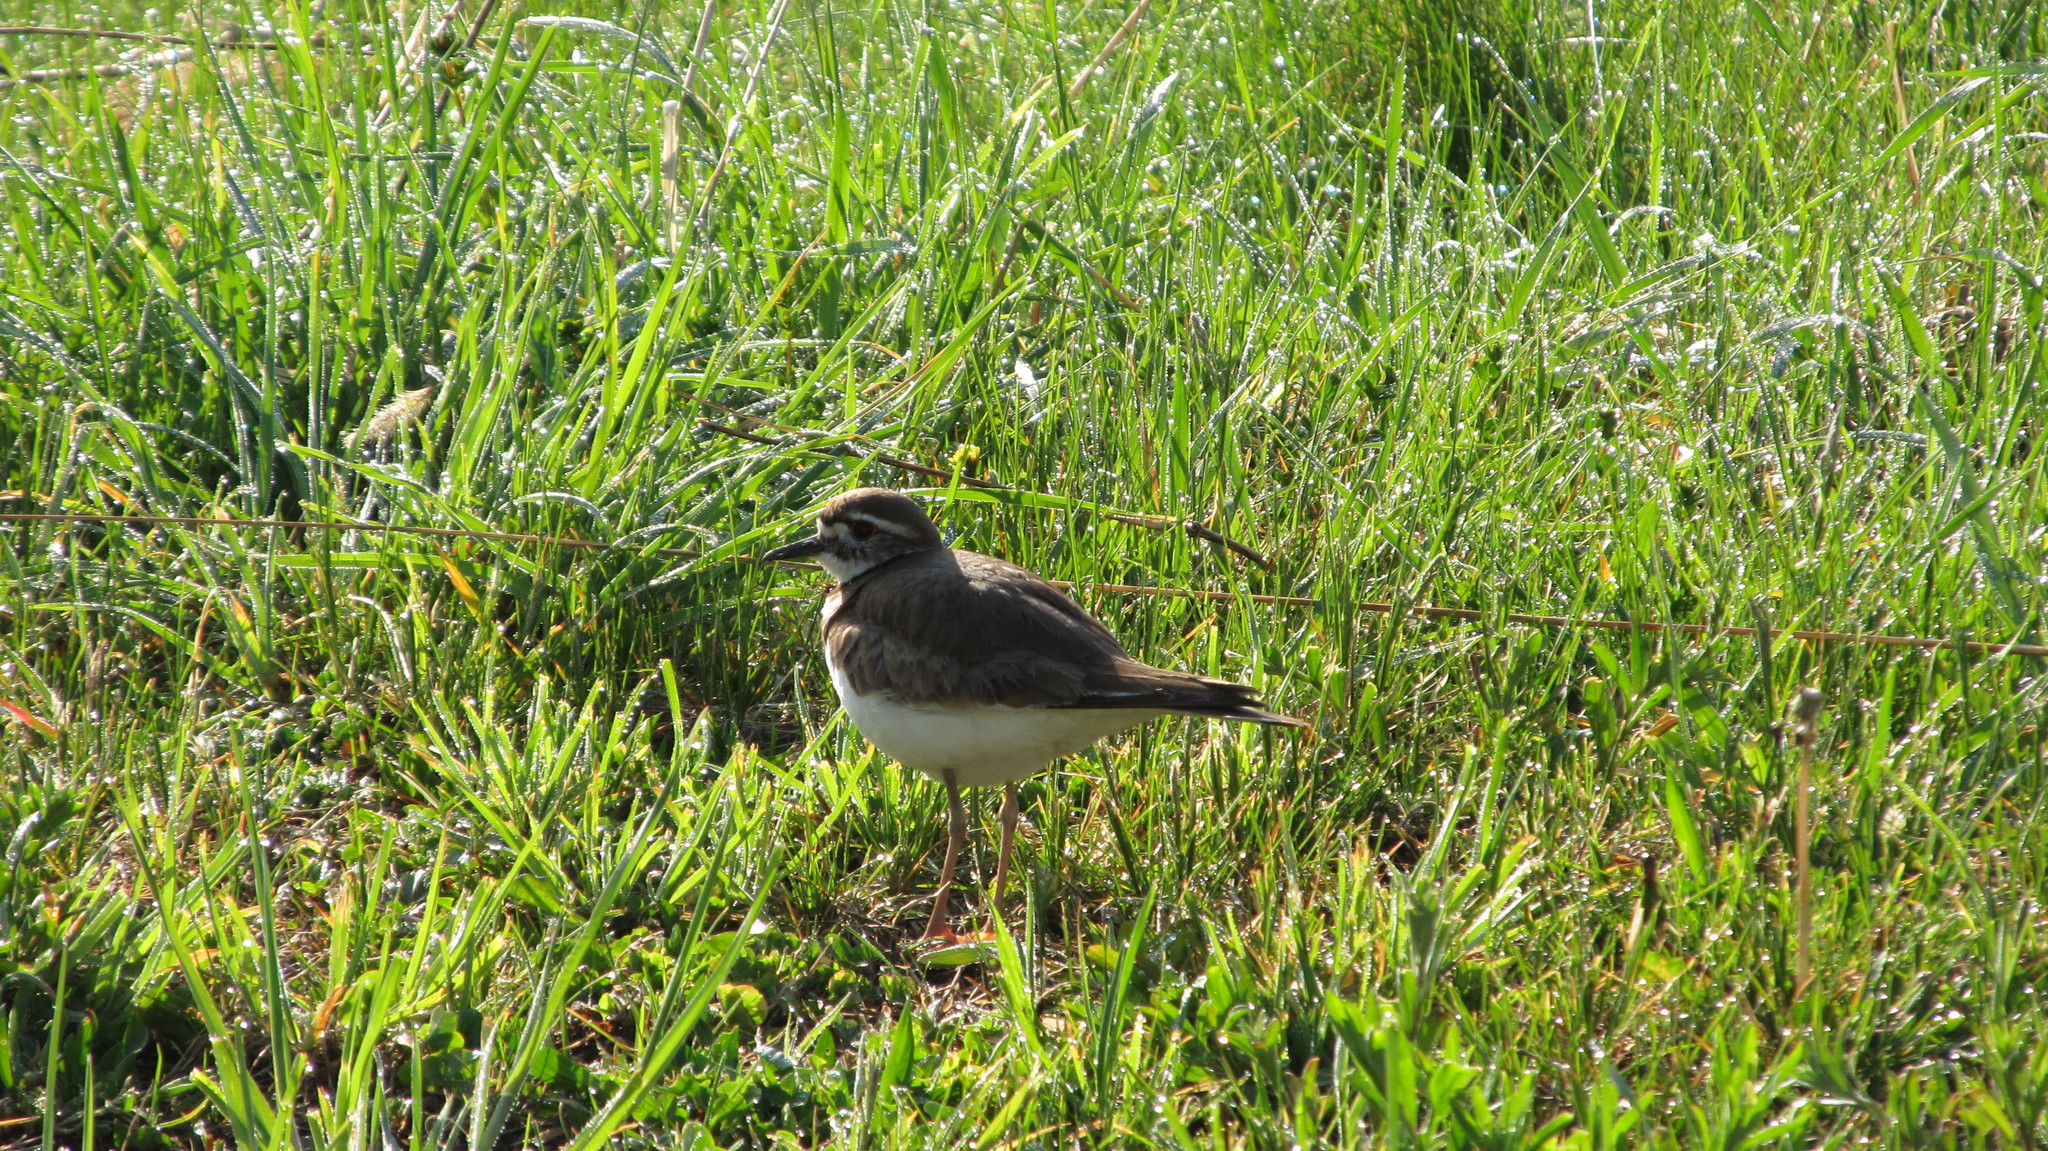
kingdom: Animalia
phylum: Chordata
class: Aves
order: Charadriiformes
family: Charadriidae
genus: Charadrius
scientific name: Charadrius vociferus
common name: Killdeer
